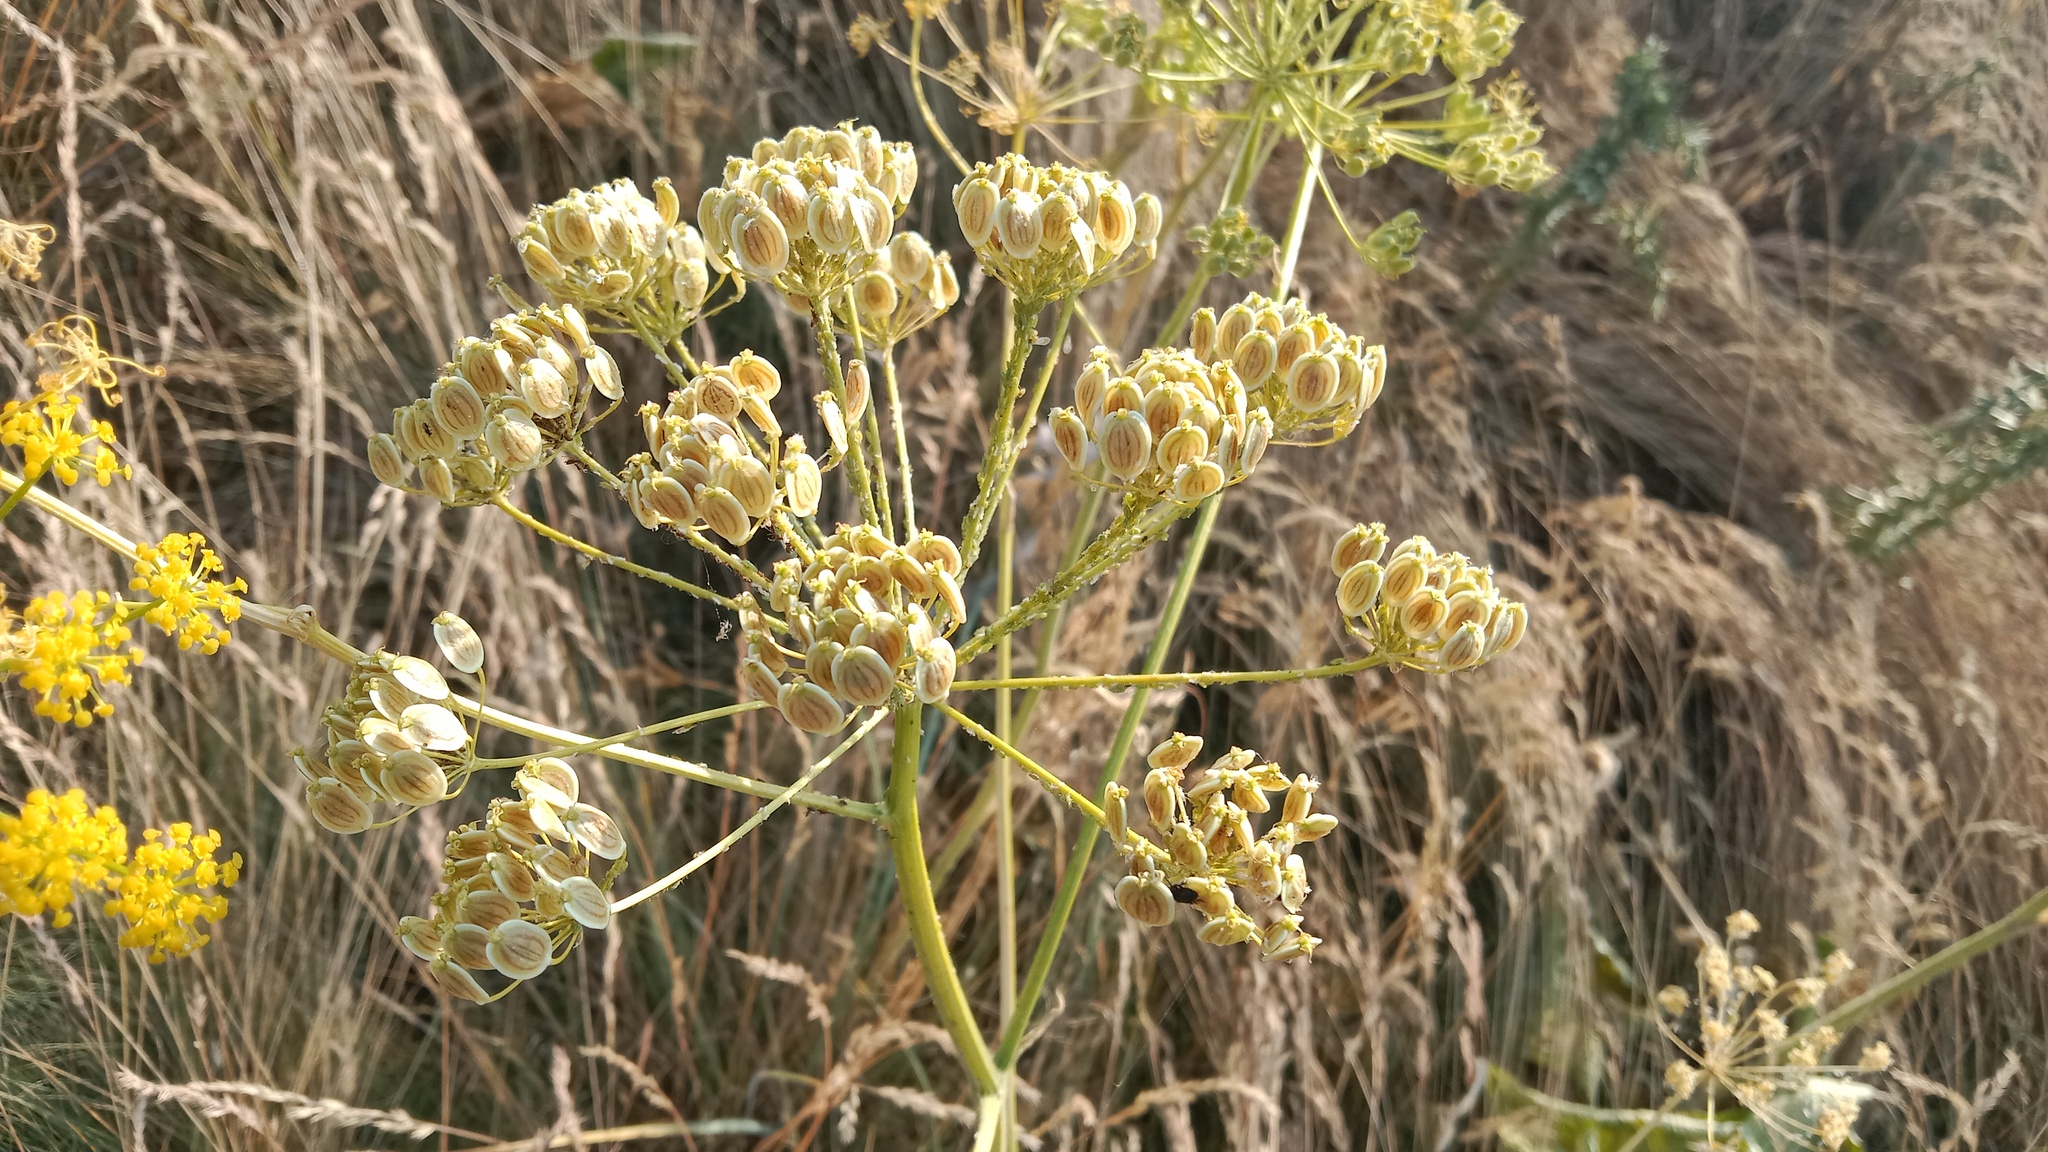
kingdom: Plantae
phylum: Tracheophyta
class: Magnoliopsida
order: Apiales
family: Apiaceae
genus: Pastinaca
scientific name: Pastinaca clausii
